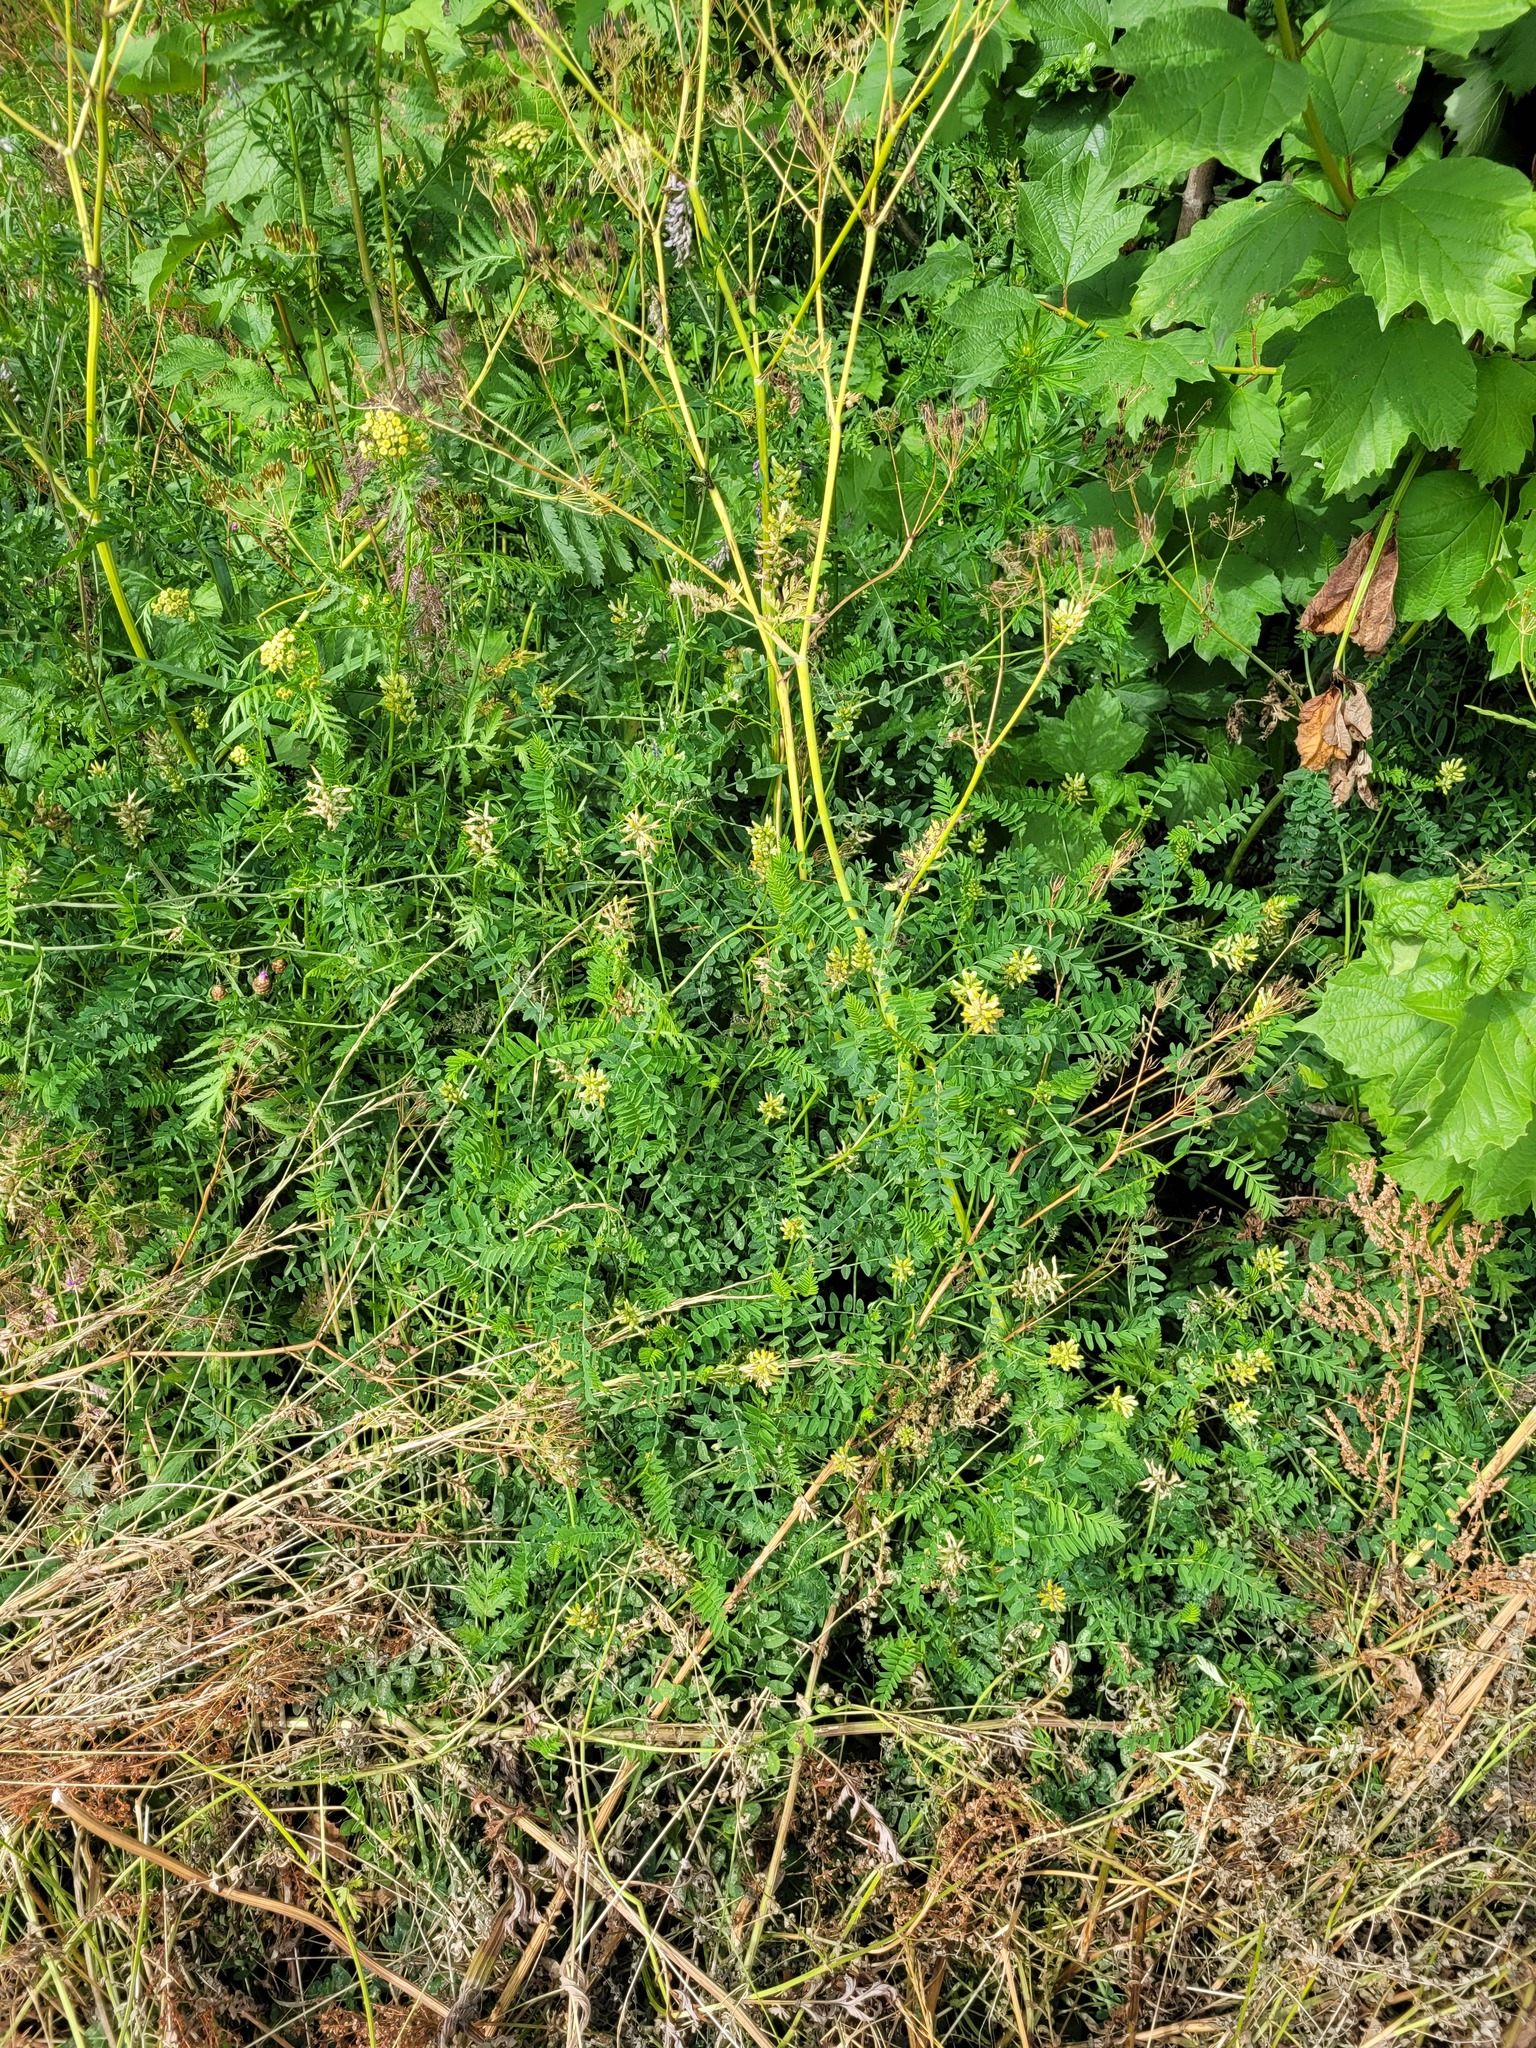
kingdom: Plantae
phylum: Tracheophyta
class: Magnoliopsida
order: Fabales
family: Fabaceae
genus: Astragalus
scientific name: Astragalus cicer
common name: Chick-pea milk-vetch
